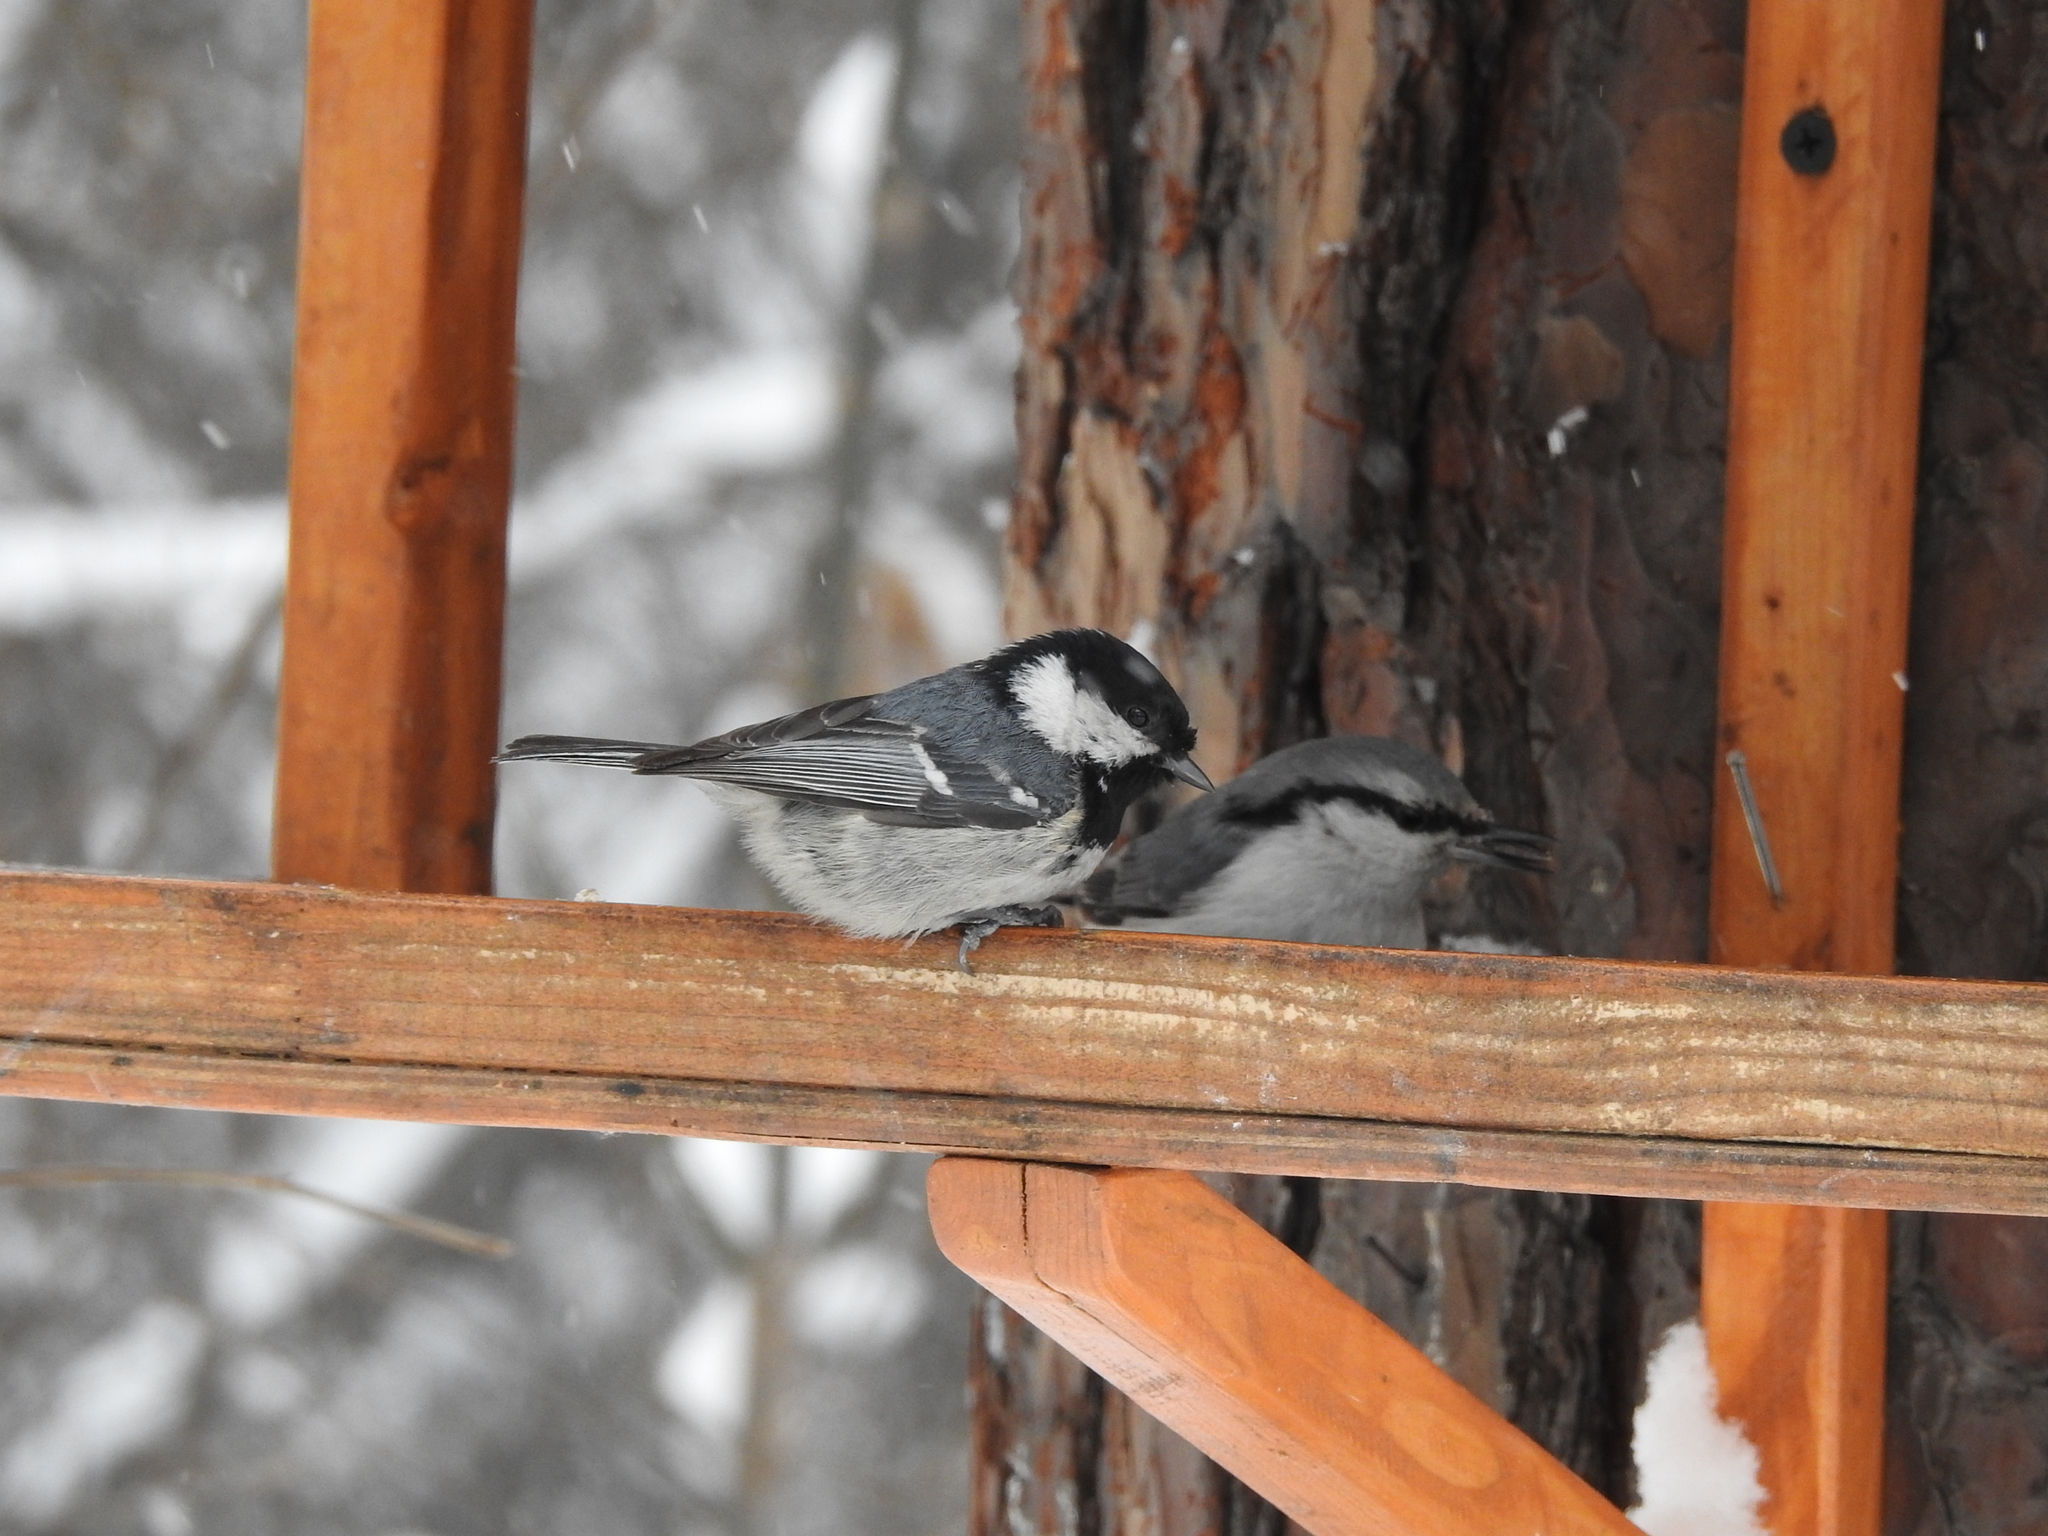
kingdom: Animalia
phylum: Chordata
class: Aves
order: Passeriformes
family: Paridae
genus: Periparus
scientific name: Periparus ater
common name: Coal tit
